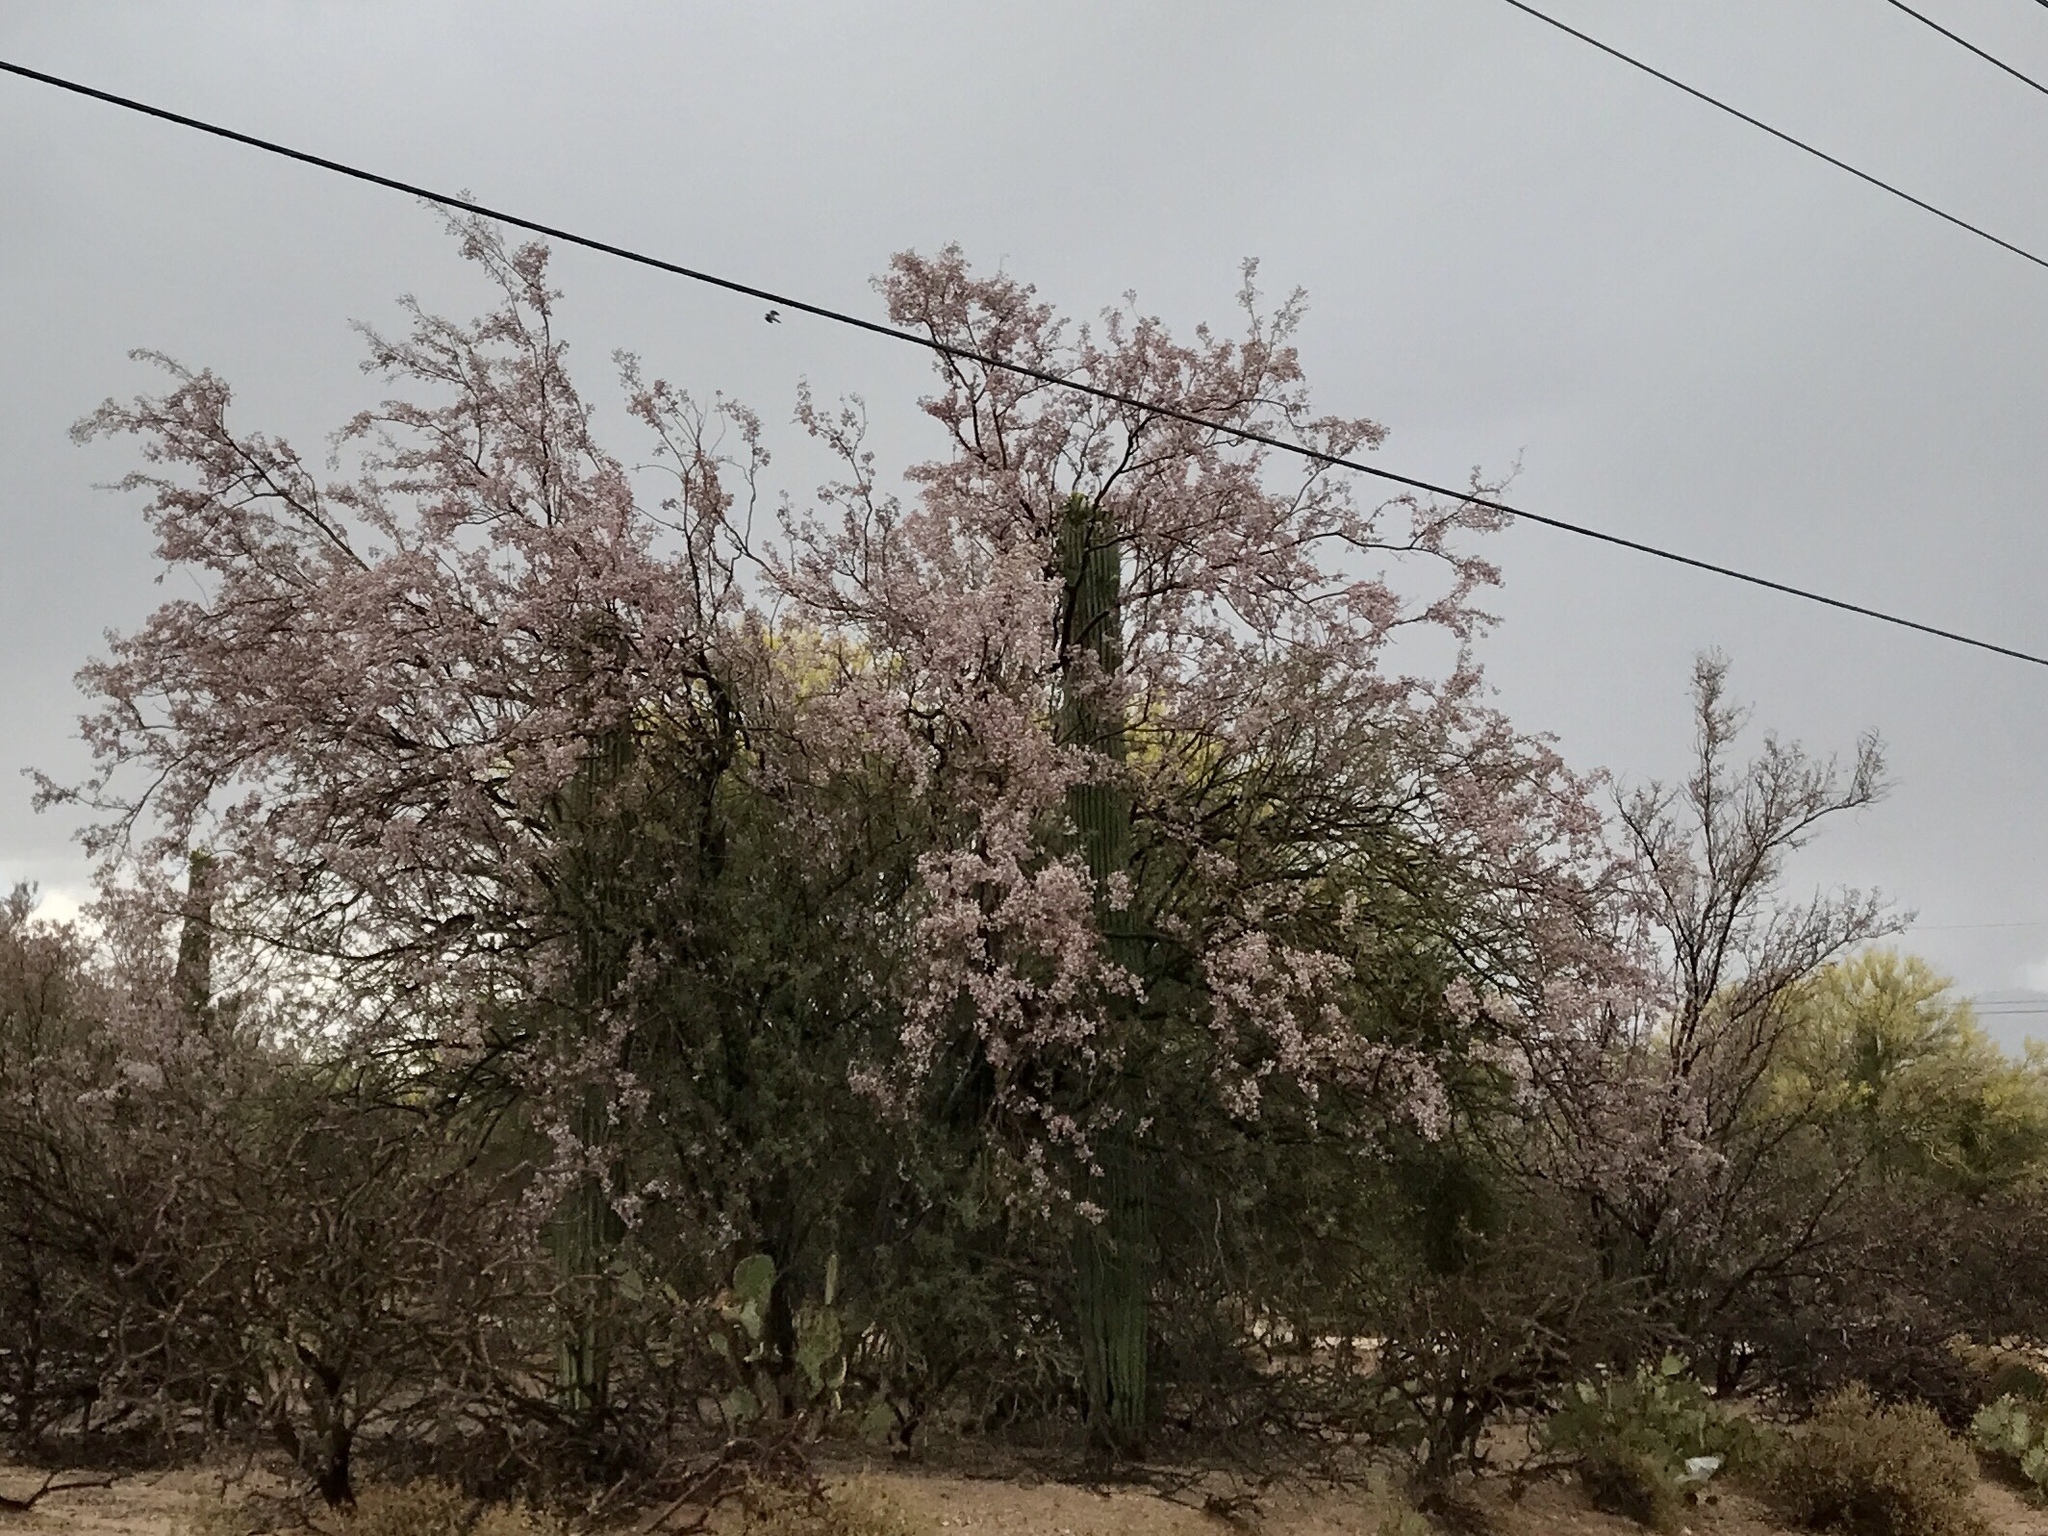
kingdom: Plantae
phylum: Tracheophyta
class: Magnoliopsida
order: Fabales
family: Fabaceae
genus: Olneya
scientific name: Olneya tesota
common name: Desert ironwood
